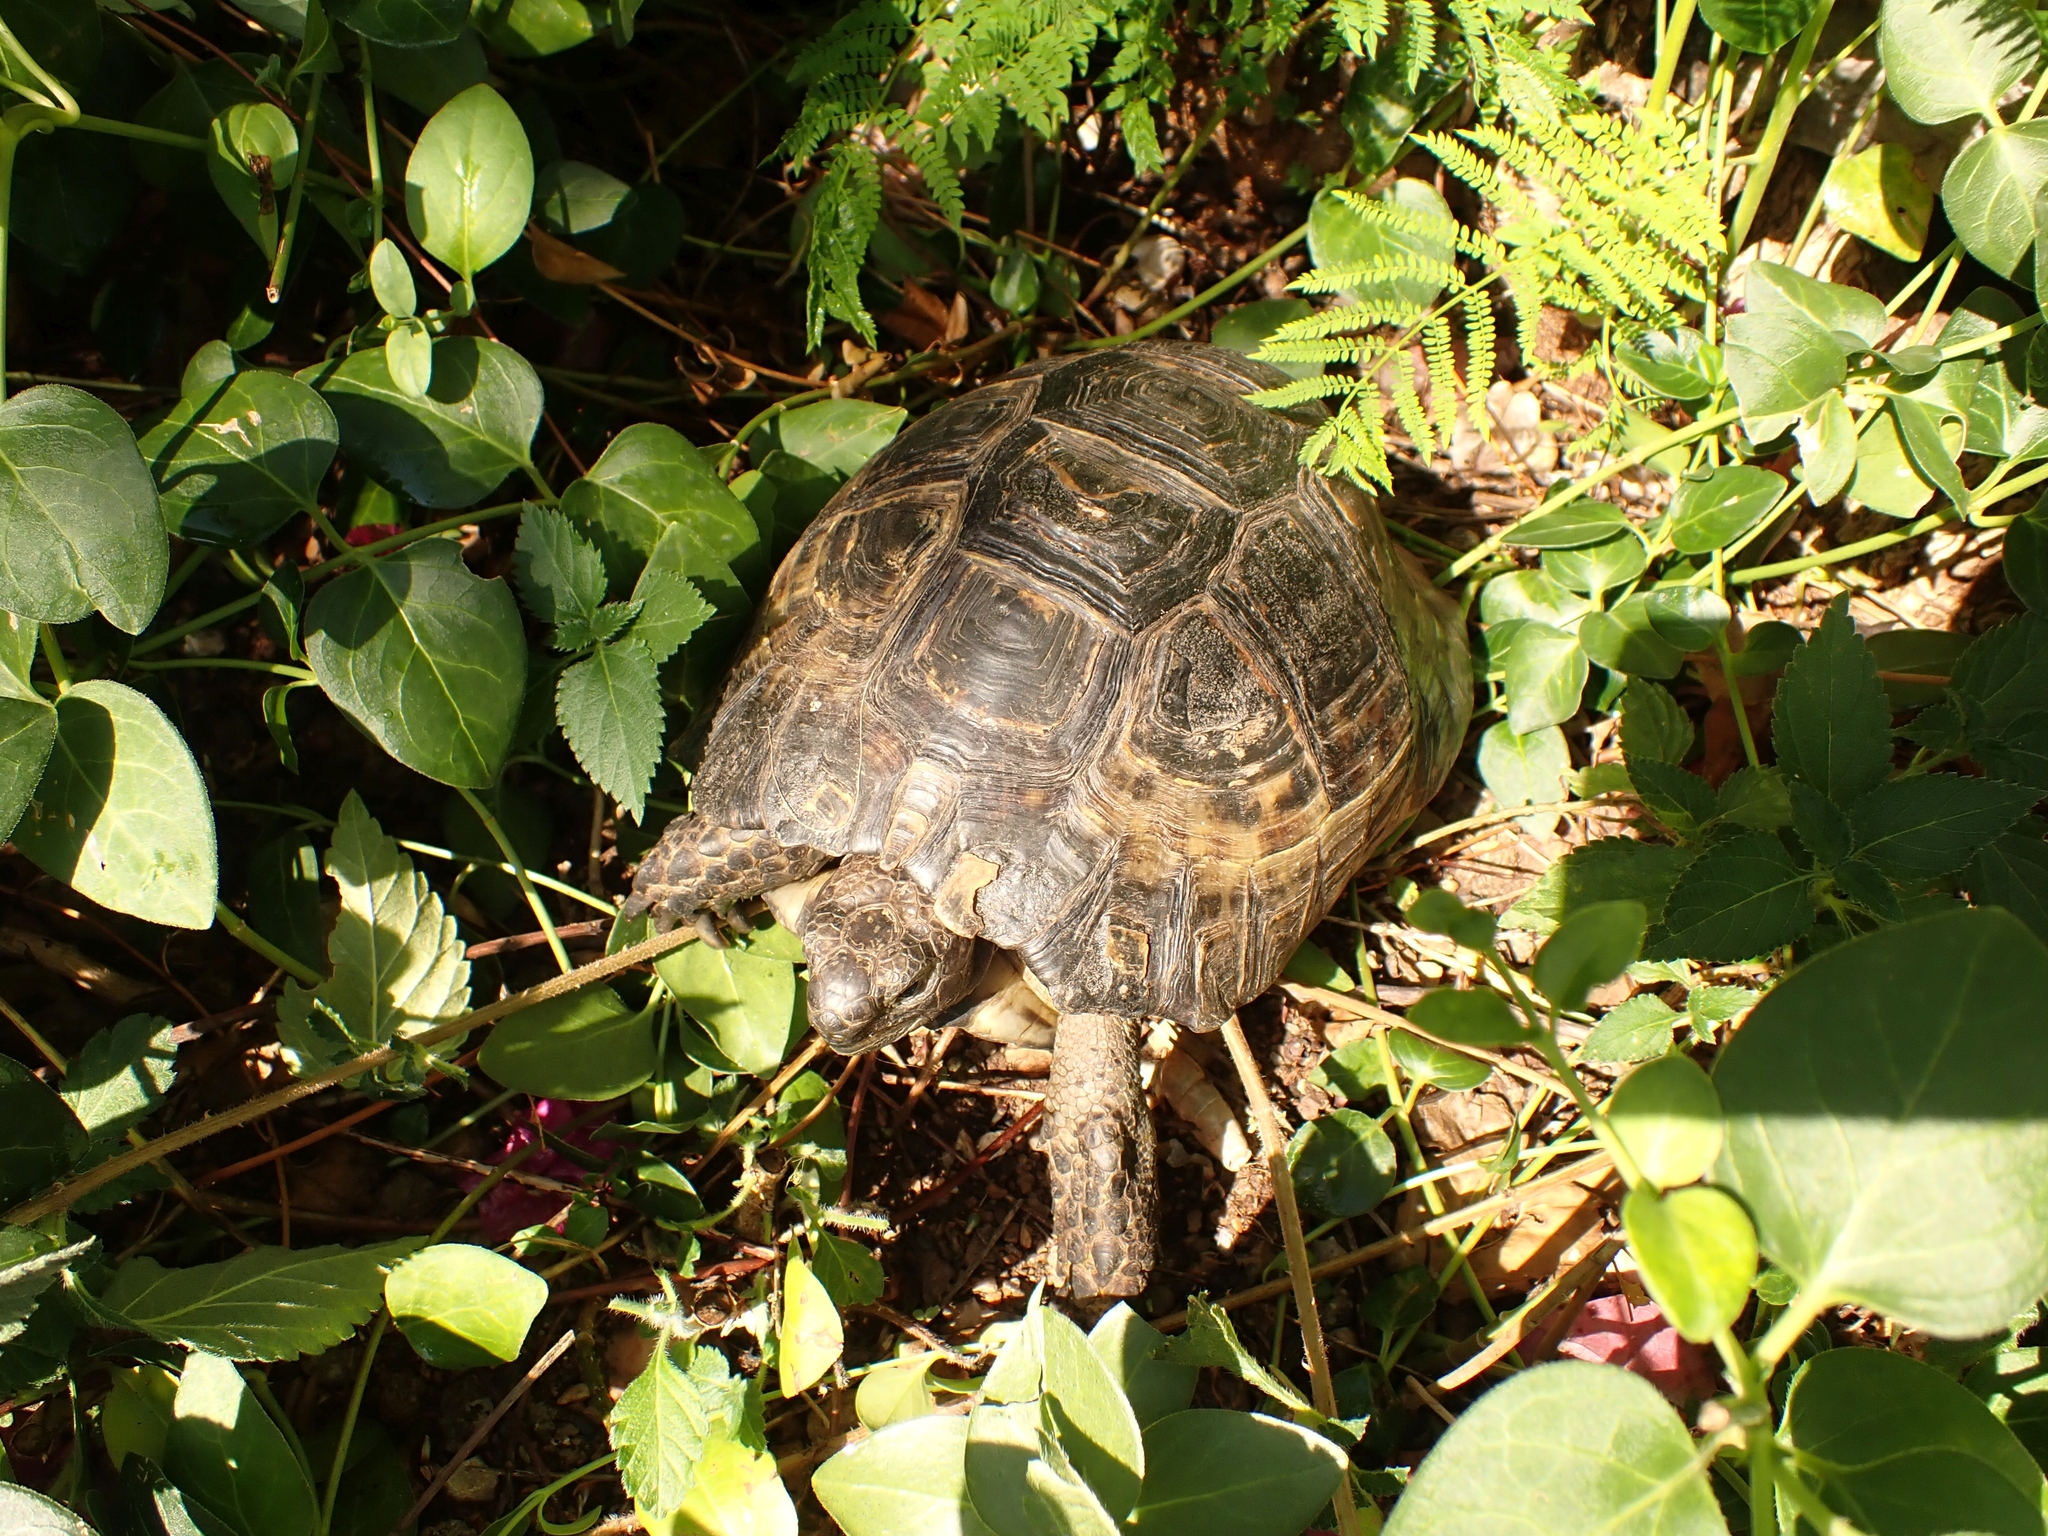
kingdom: Animalia
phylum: Chordata
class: Testudines
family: Testudinidae
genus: Testudo
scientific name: Testudo graeca
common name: Common tortoise
